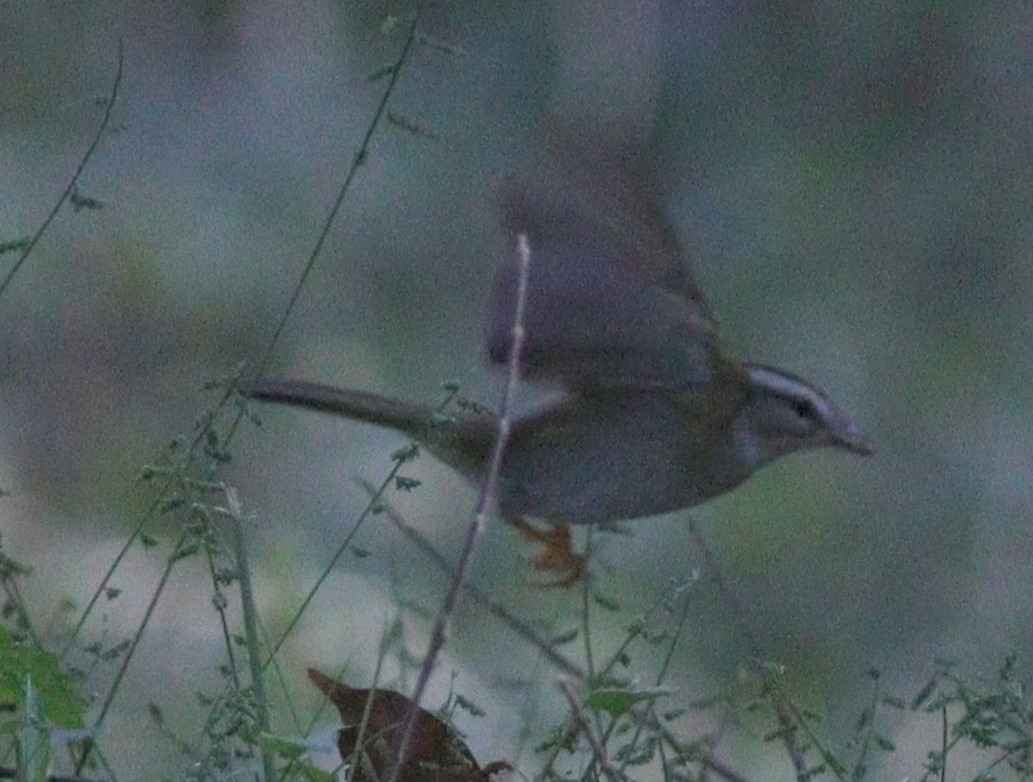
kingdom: Animalia
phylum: Chordata
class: Aves
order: Passeriformes
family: Parulidae
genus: Basileuterus
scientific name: Basileuterus culicivorus
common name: Golden-crowned warbler
